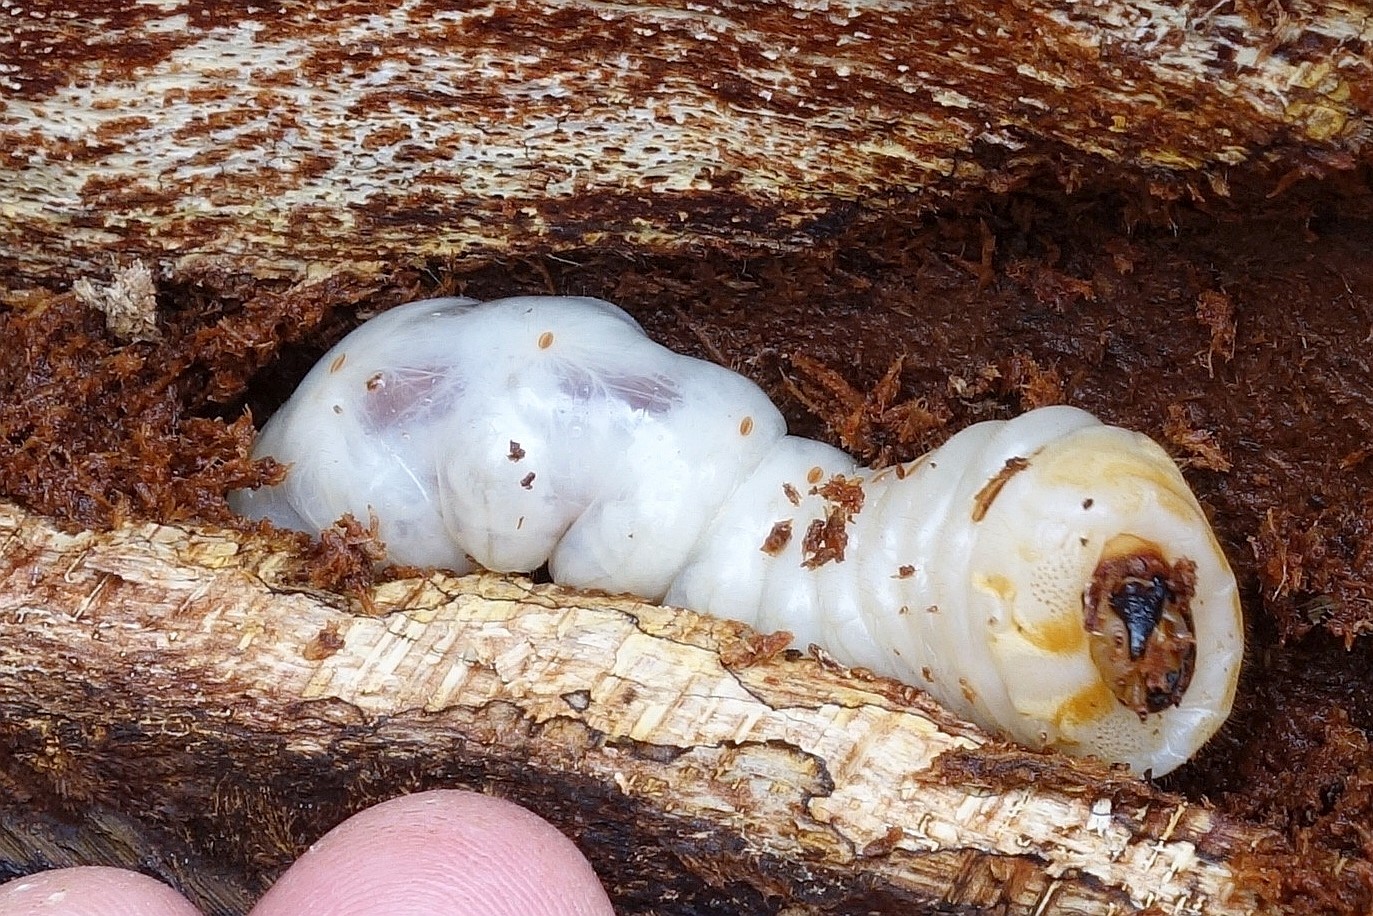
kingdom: Animalia
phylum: Arthropoda
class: Insecta
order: Coleoptera
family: Cerambycidae
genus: Olethrius
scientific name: Olethrius tyrannus
